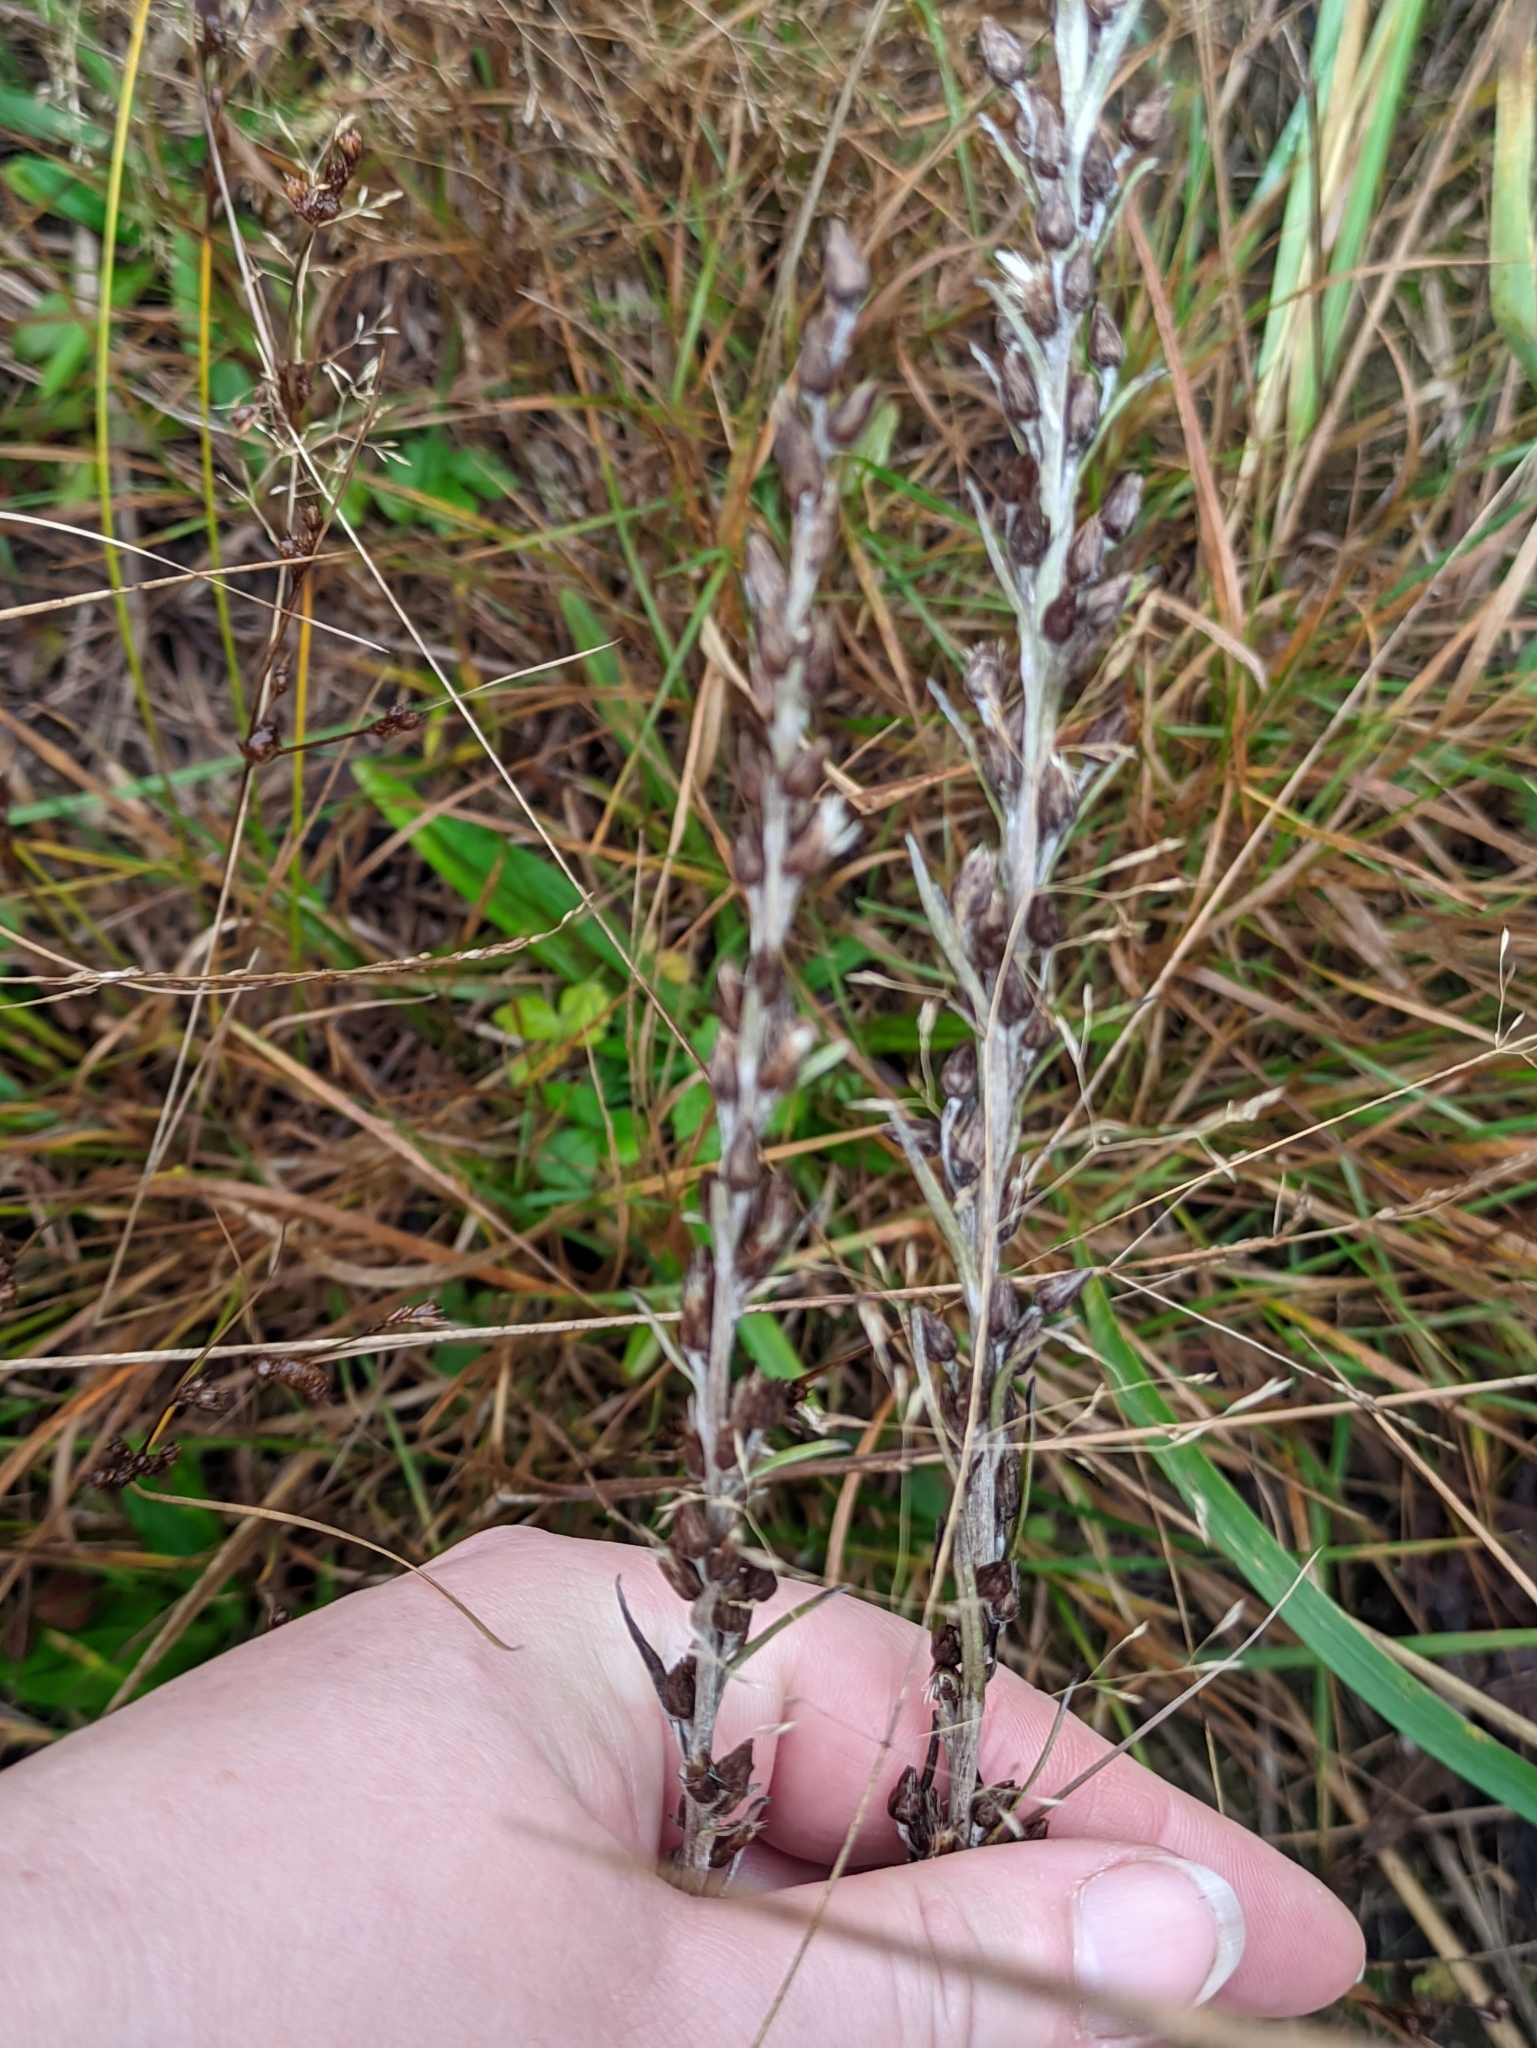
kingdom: Plantae
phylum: Tracheophyta
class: Magnoliopsida
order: Asterales
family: Asteraceae
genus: Omalotheca
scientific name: Omalotheca sylvatica
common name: Heath cudweed
